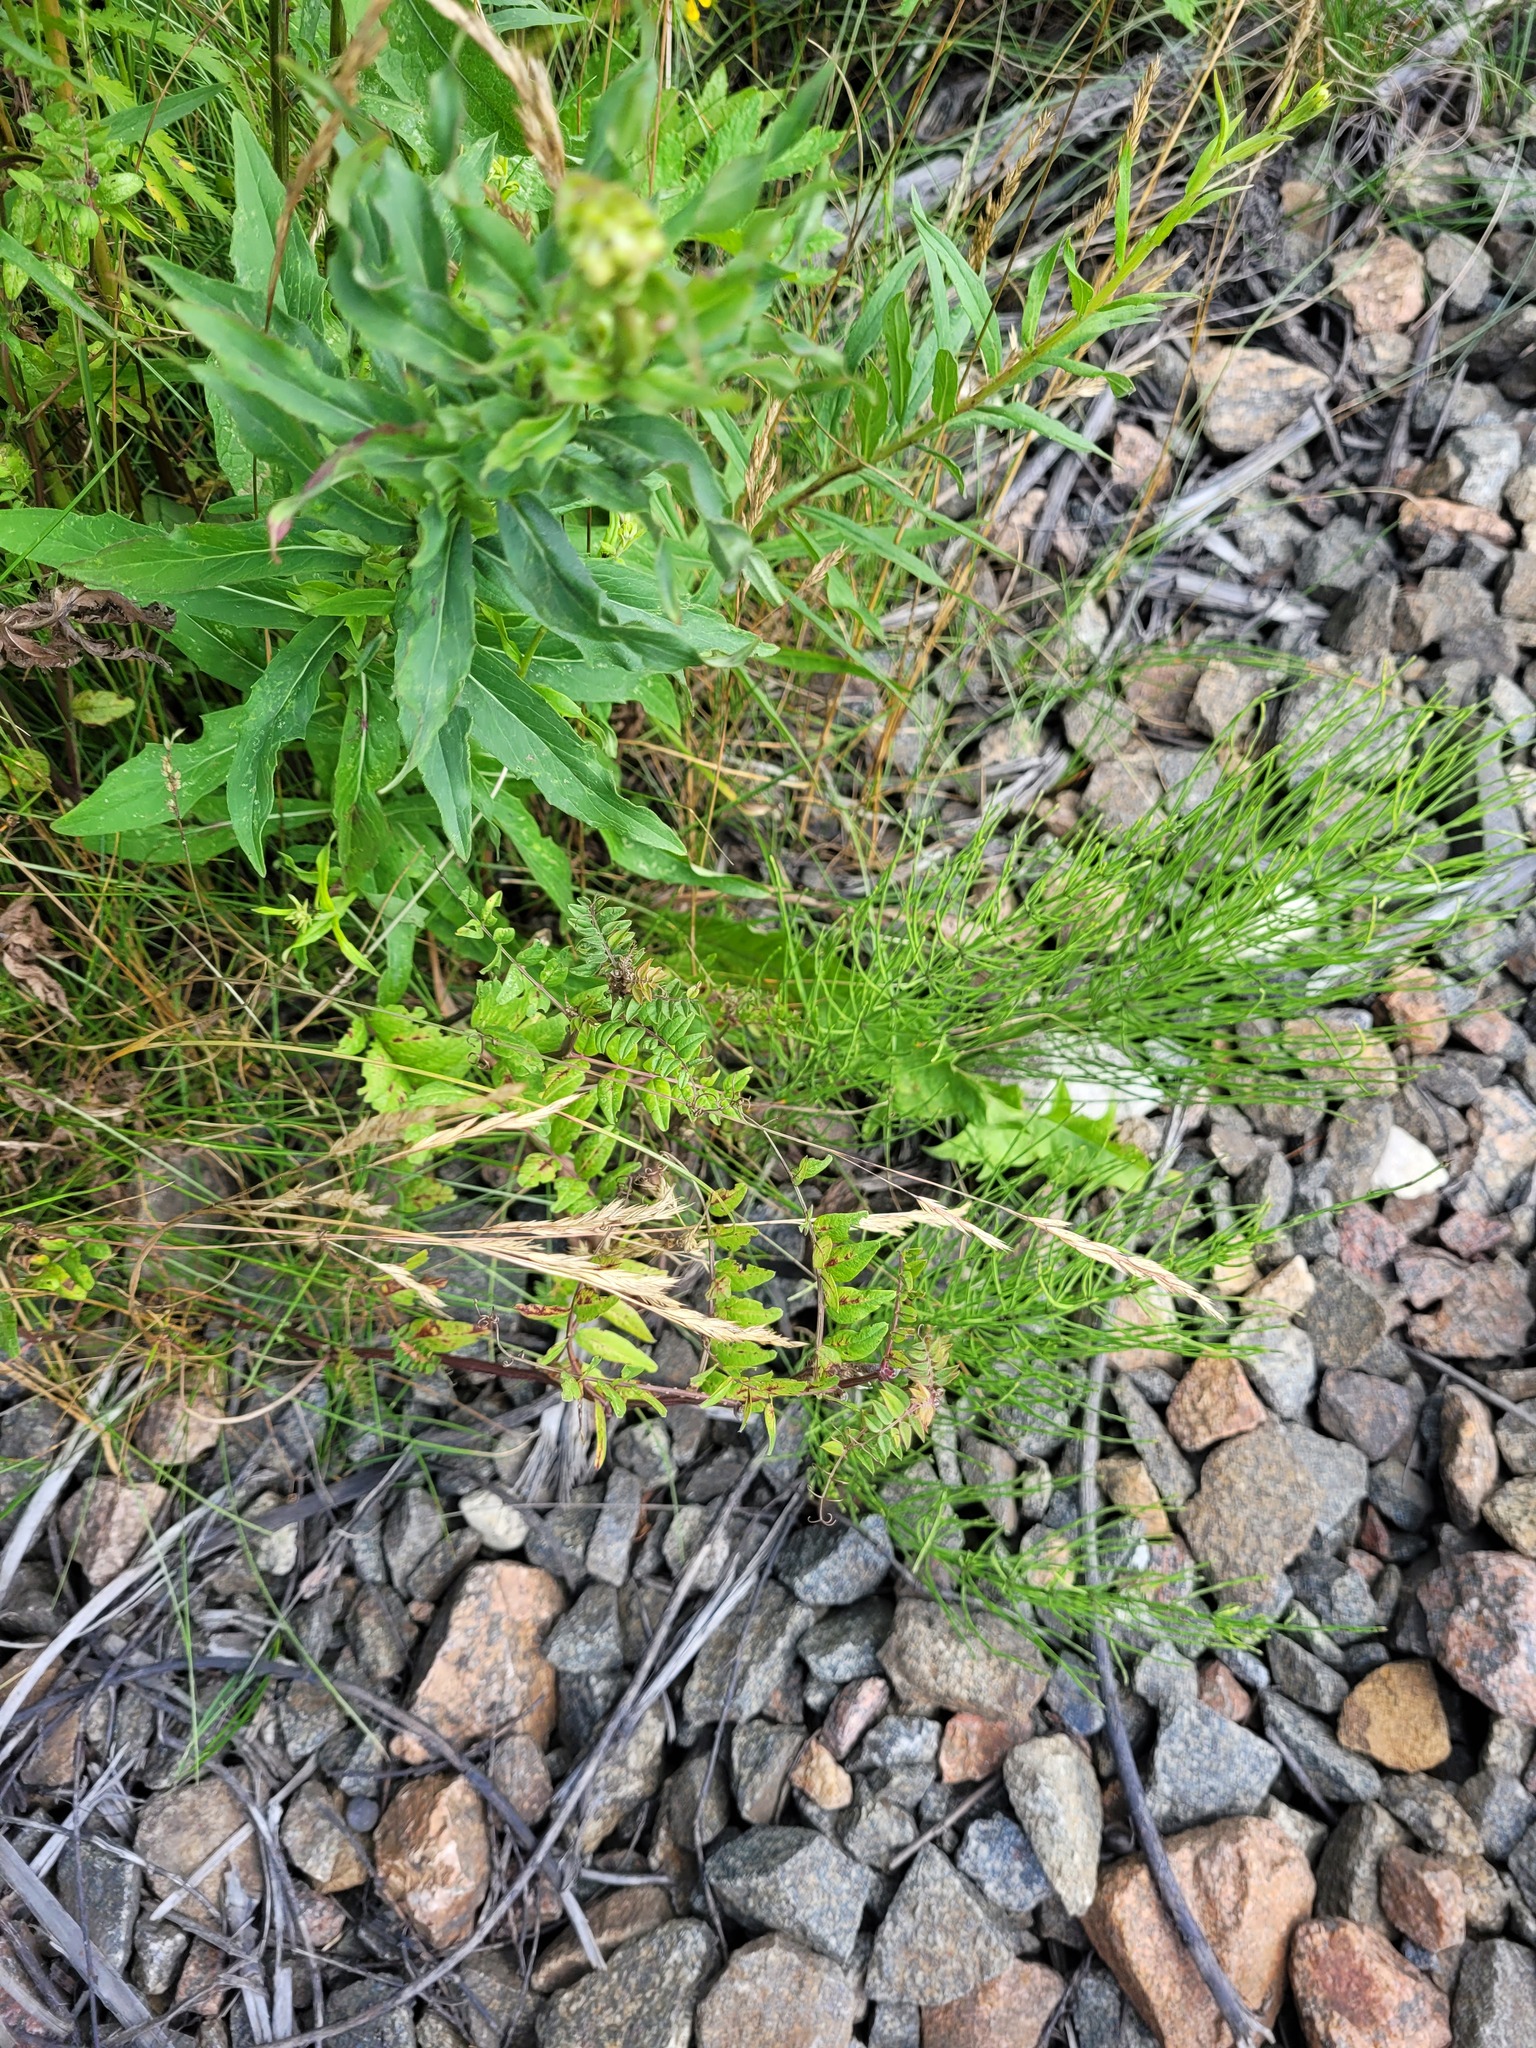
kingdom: Plantae
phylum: Tracheophyta
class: Magnoliopsida
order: Fabales
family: Fabaceae
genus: Vicia
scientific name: Vicia sepium
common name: Bush vetch
